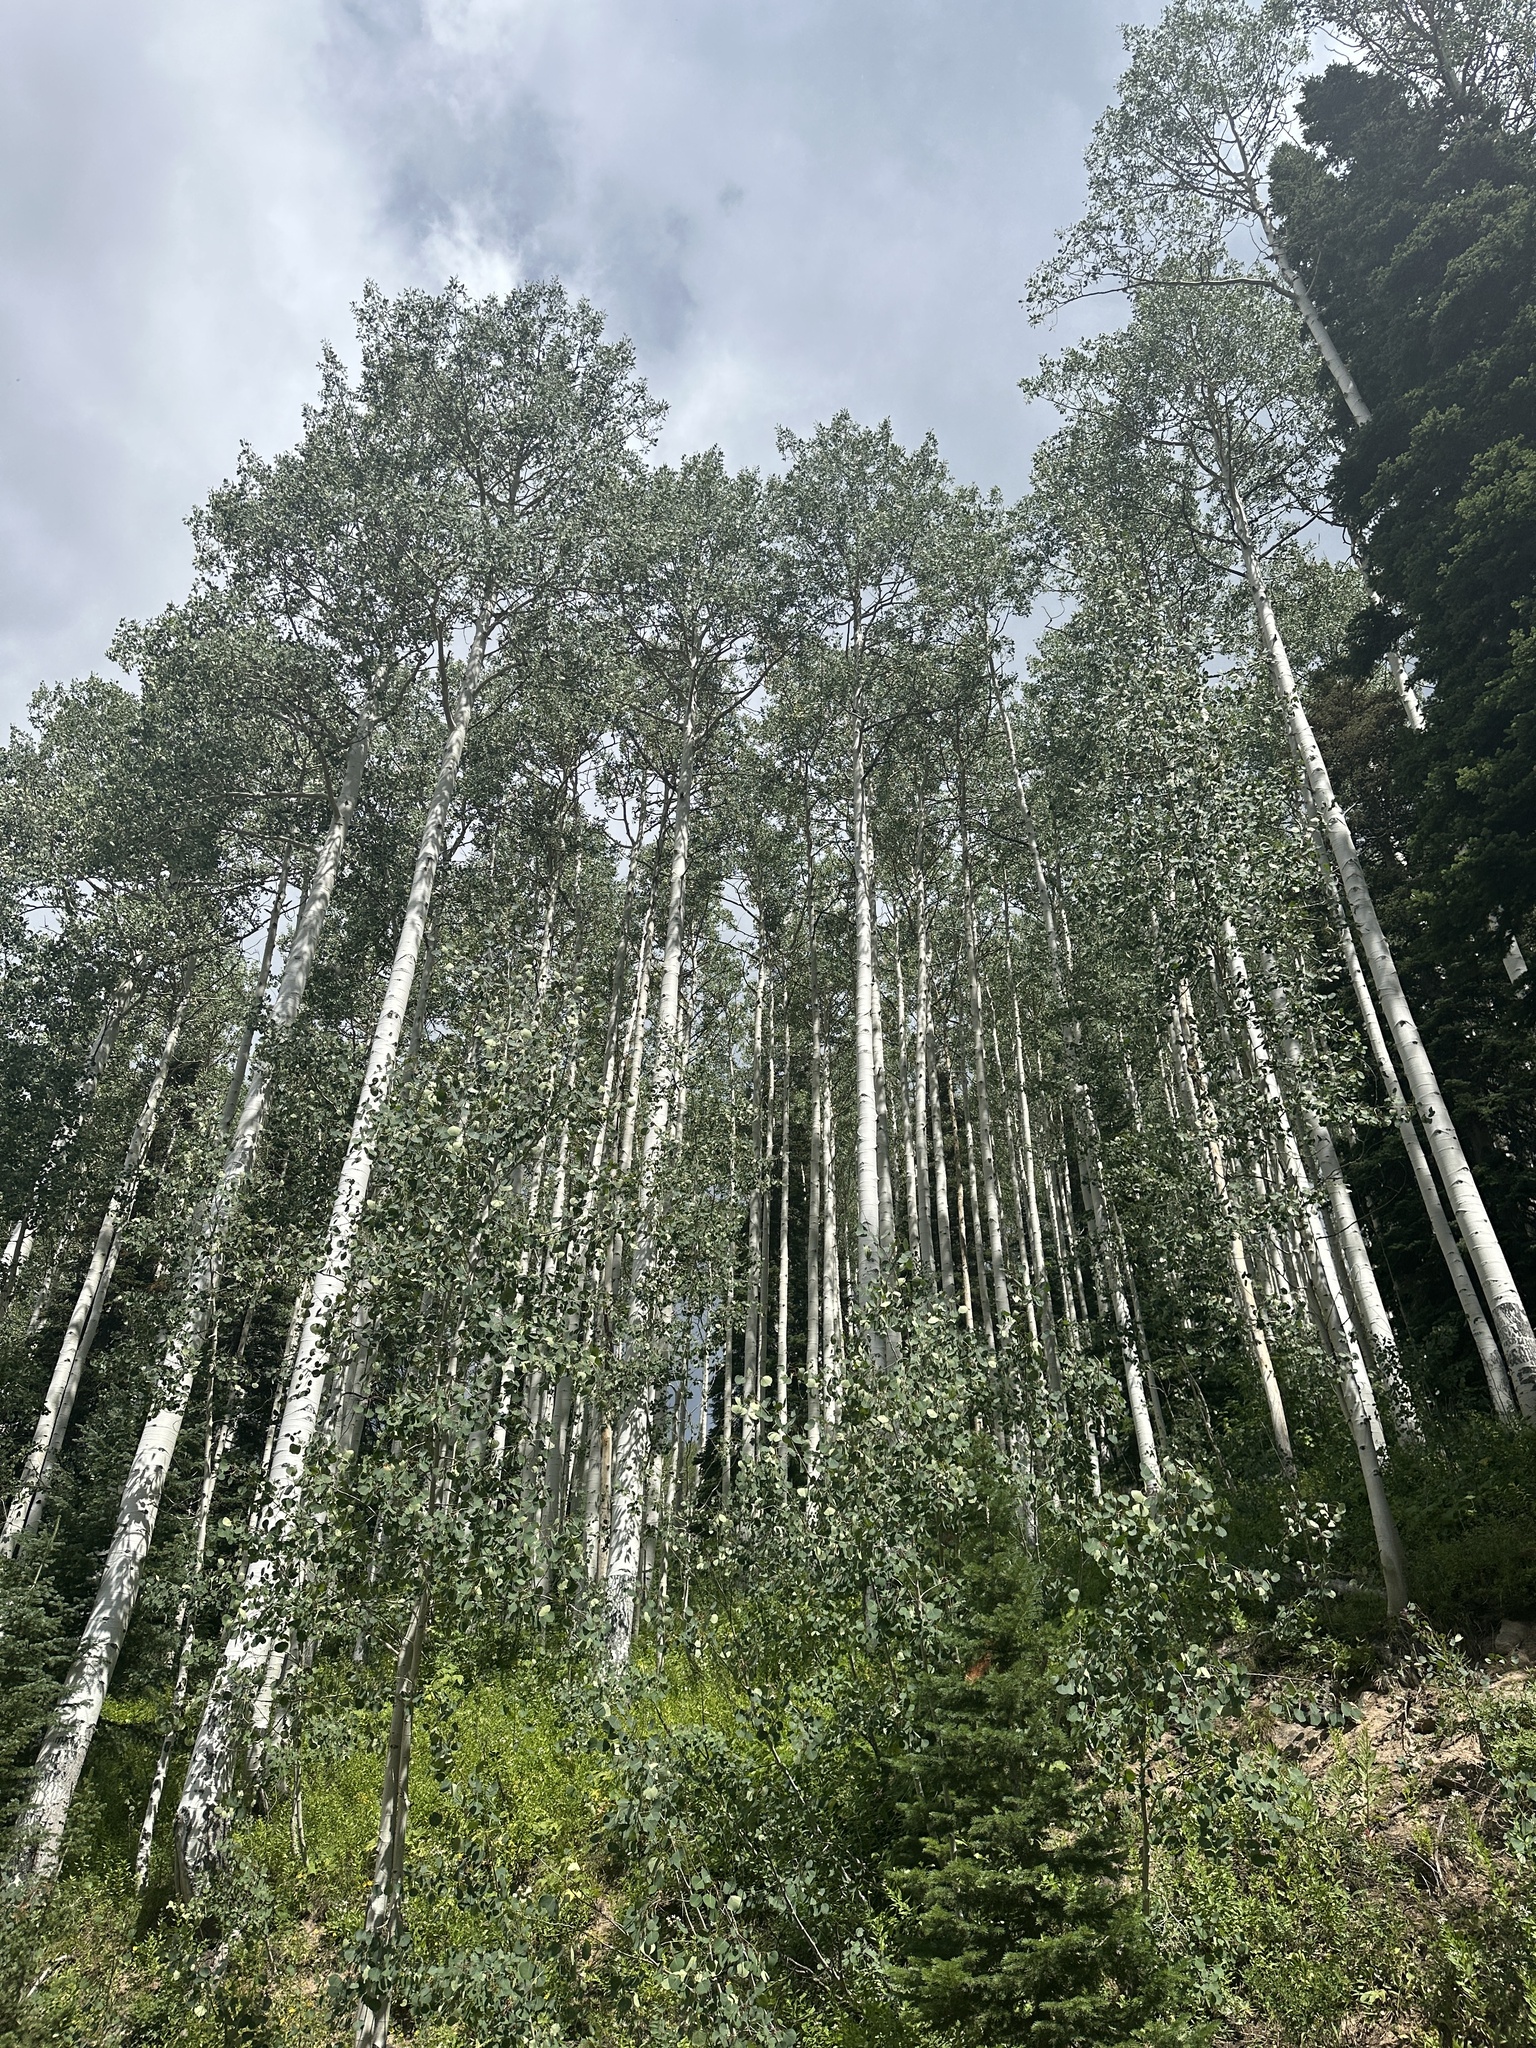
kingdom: Plantae
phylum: Tracheophyta
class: Magnoliopsida
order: Malpighiales
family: Salicaceae
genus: Populus
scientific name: Populus tremuloides
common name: Quaking aspen
